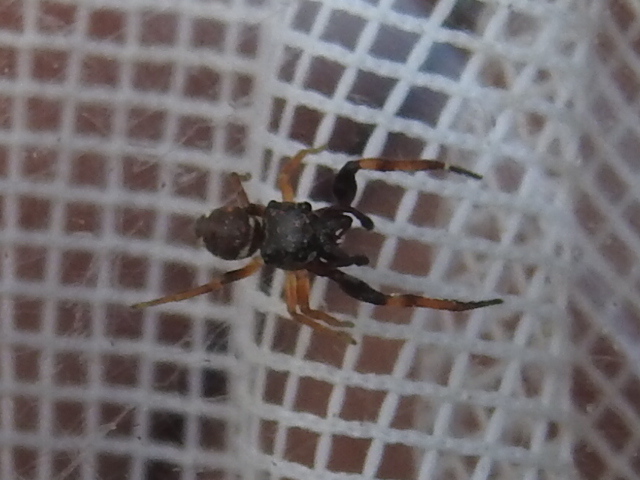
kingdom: Animalia
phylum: Arthropoda
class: Arachnida
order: Araneae
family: Salticidae
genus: Zygoballus
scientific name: Zygoballus rufipes
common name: Jumping spiders
